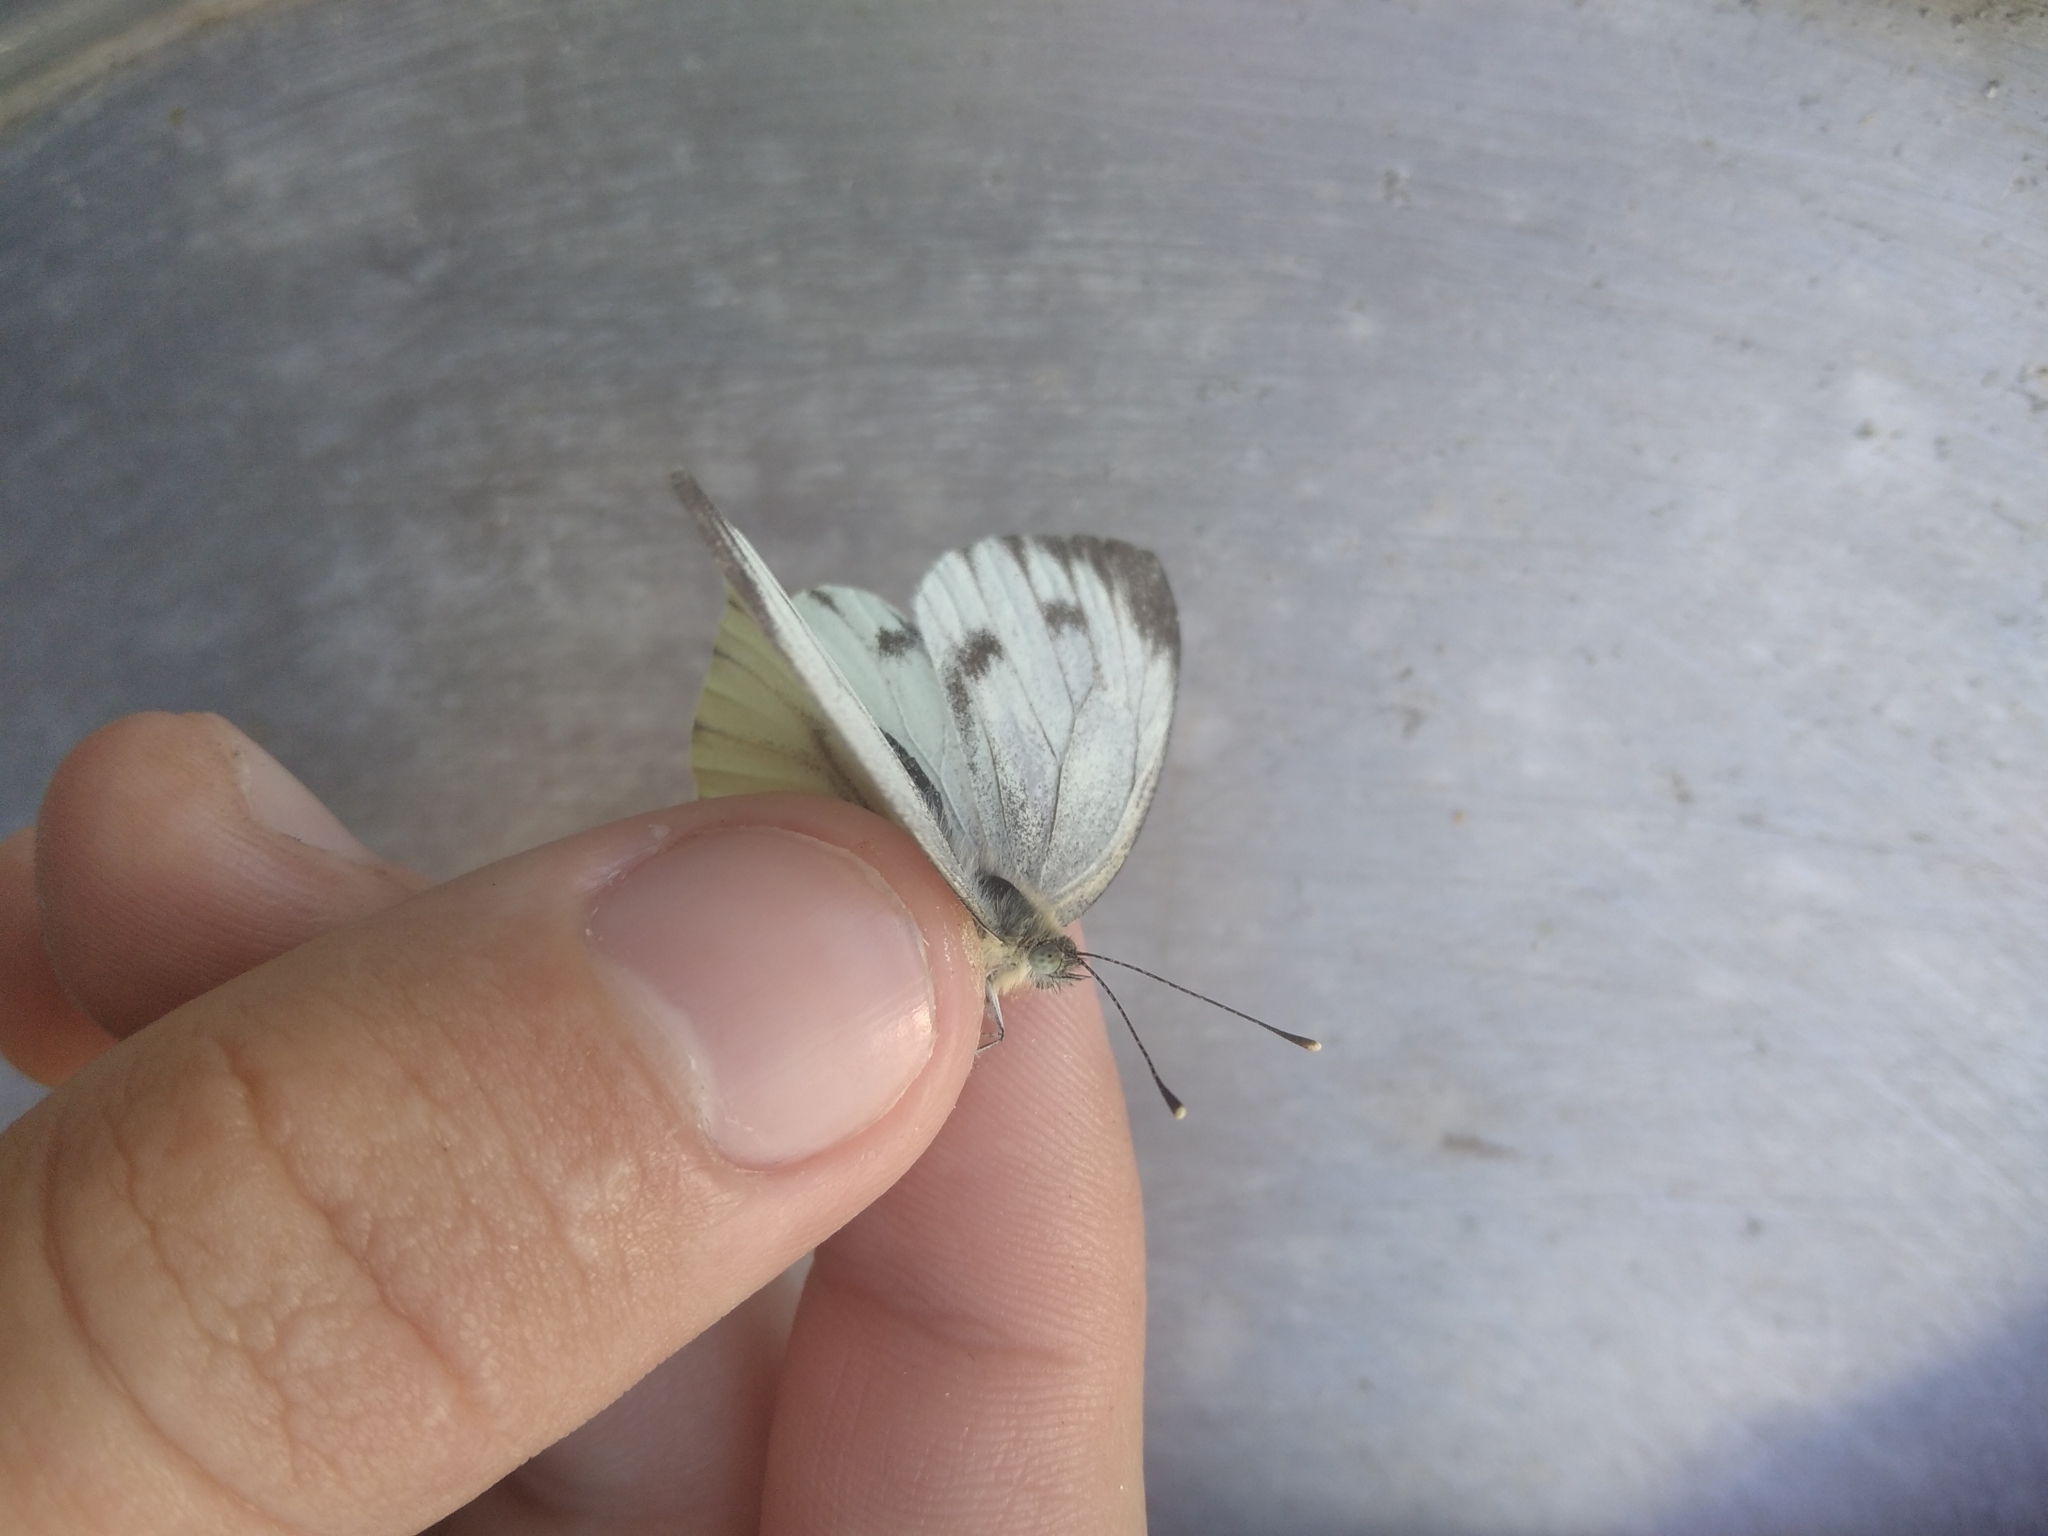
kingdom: Animalia
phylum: Arthropoda
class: Insecta
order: Lepidoptera
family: Pieridae
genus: Pieris
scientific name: Pieris napi
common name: Green-veined white
